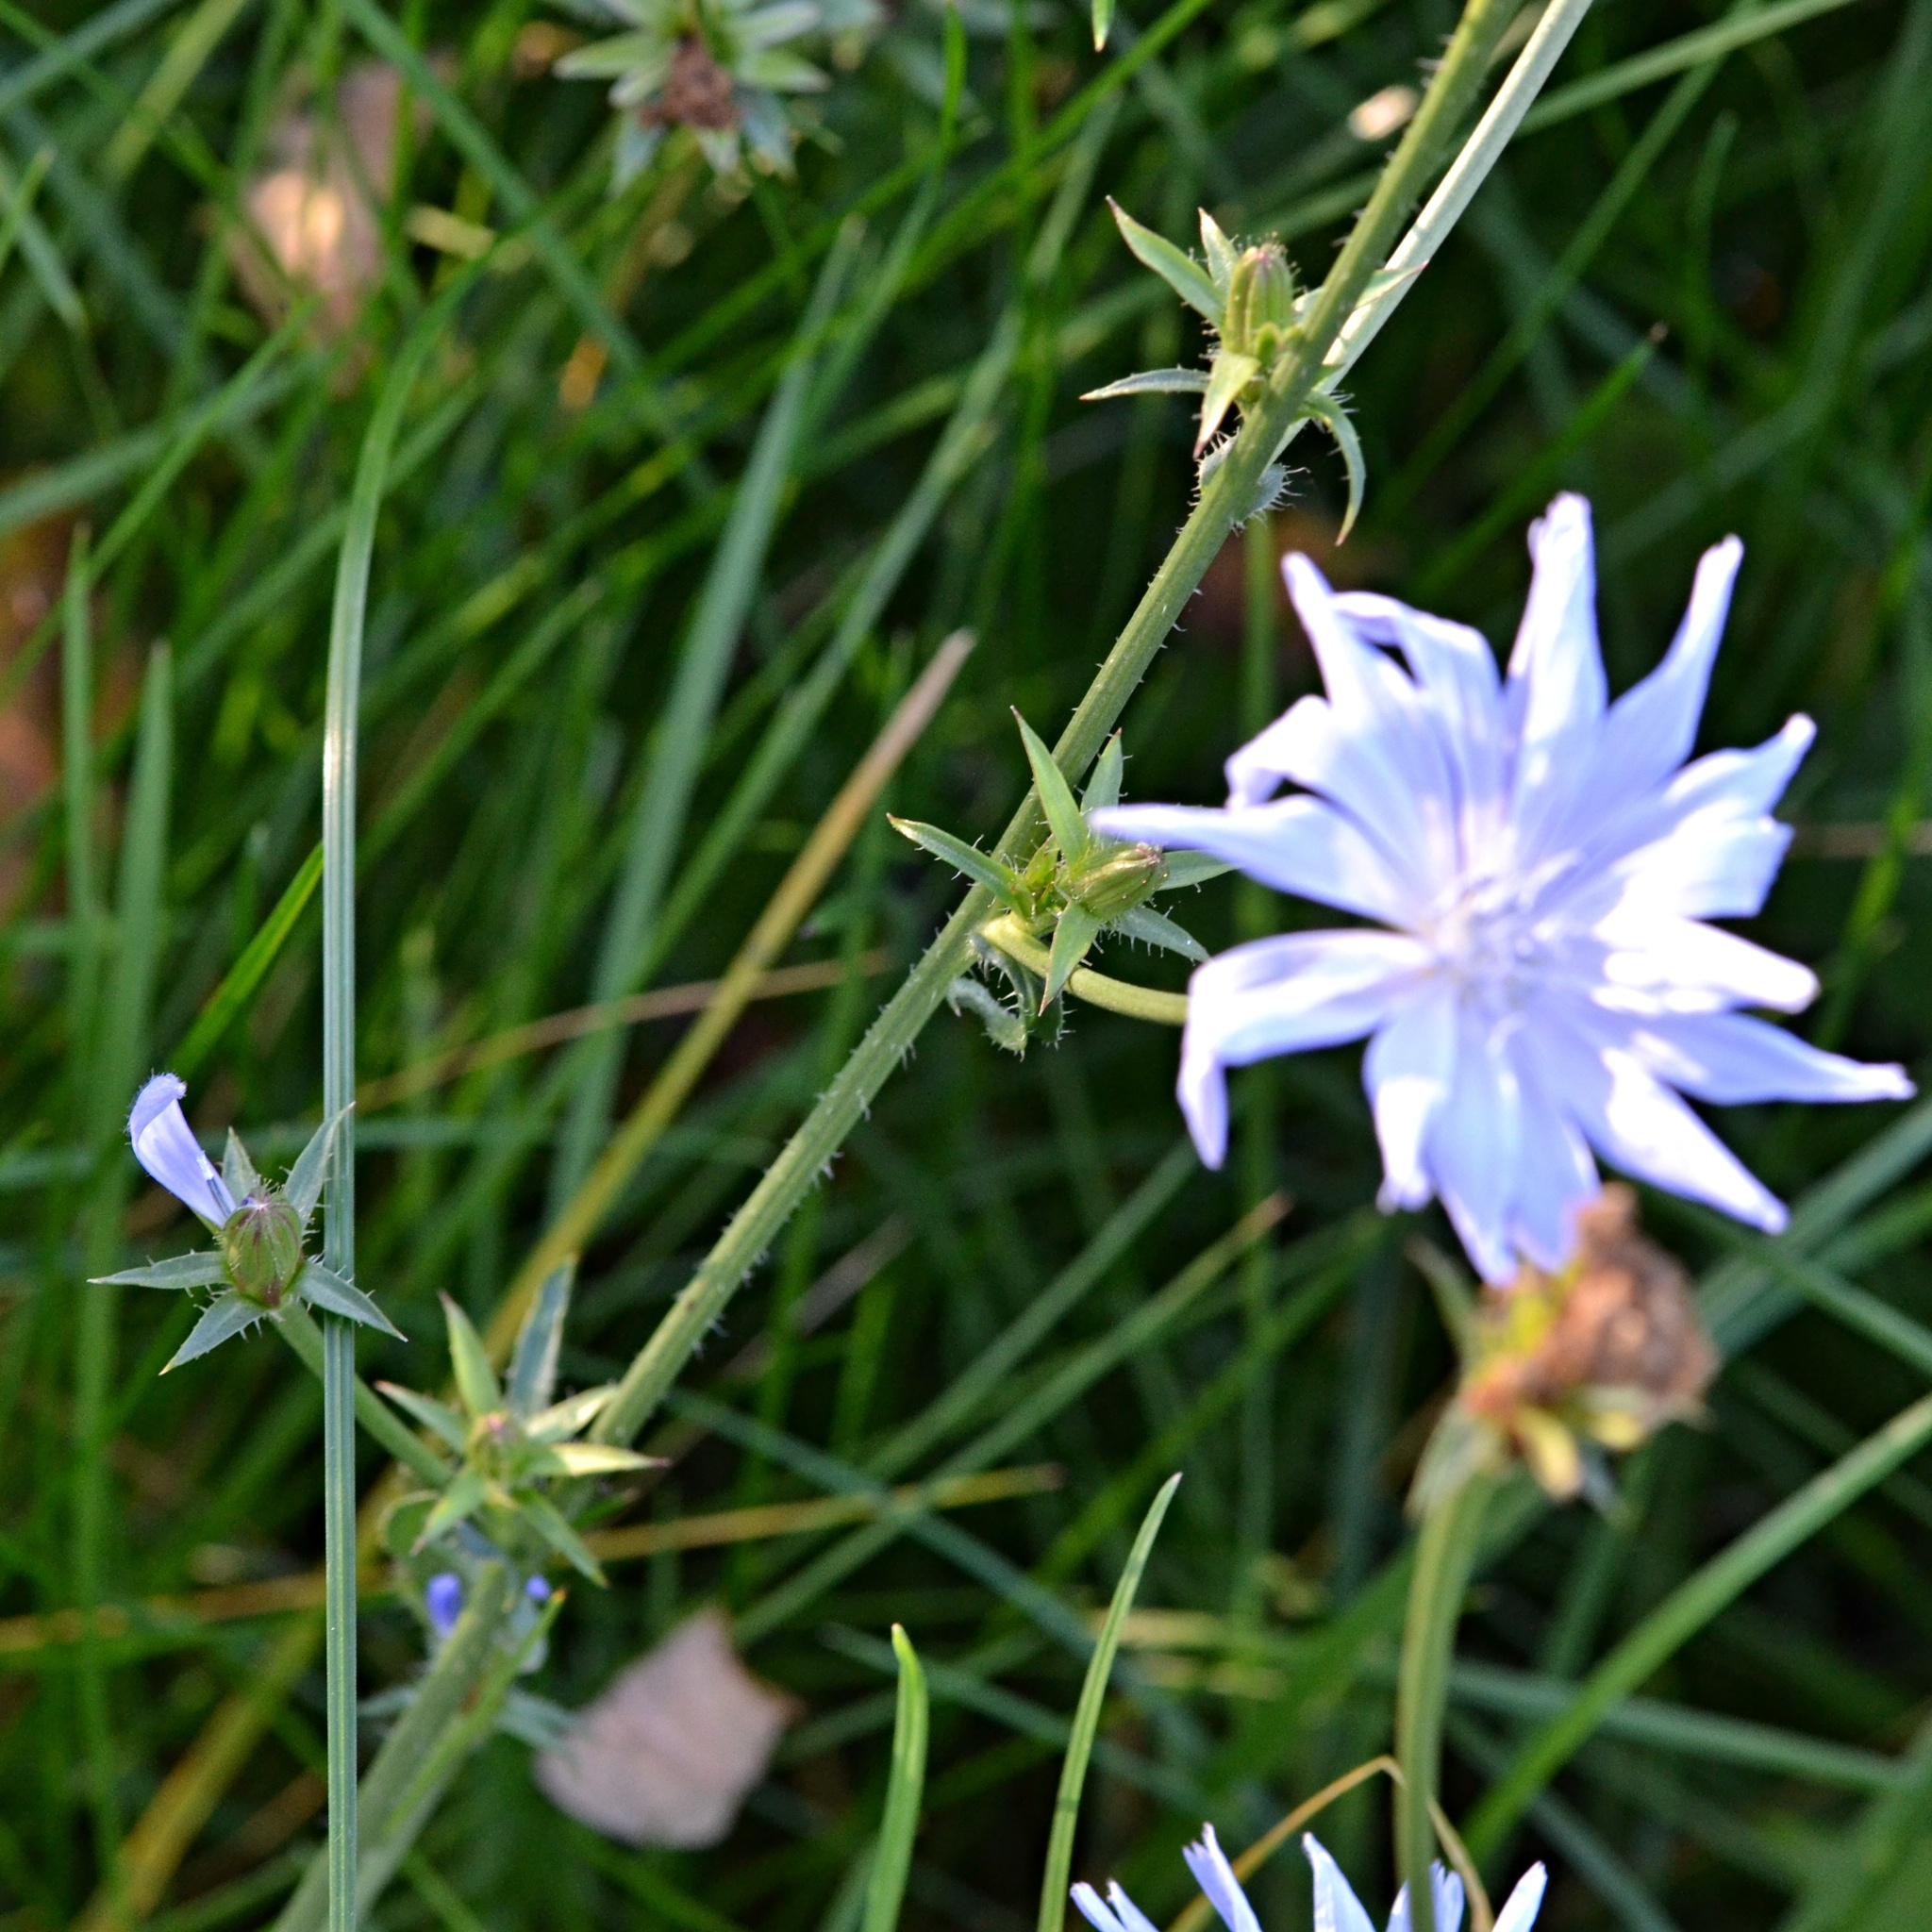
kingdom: Plantae
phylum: Tracheophyta
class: Magnoliopsida
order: Asterales
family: Asteraceae
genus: Cichorium
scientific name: Cichorium intybus
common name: Chicory
